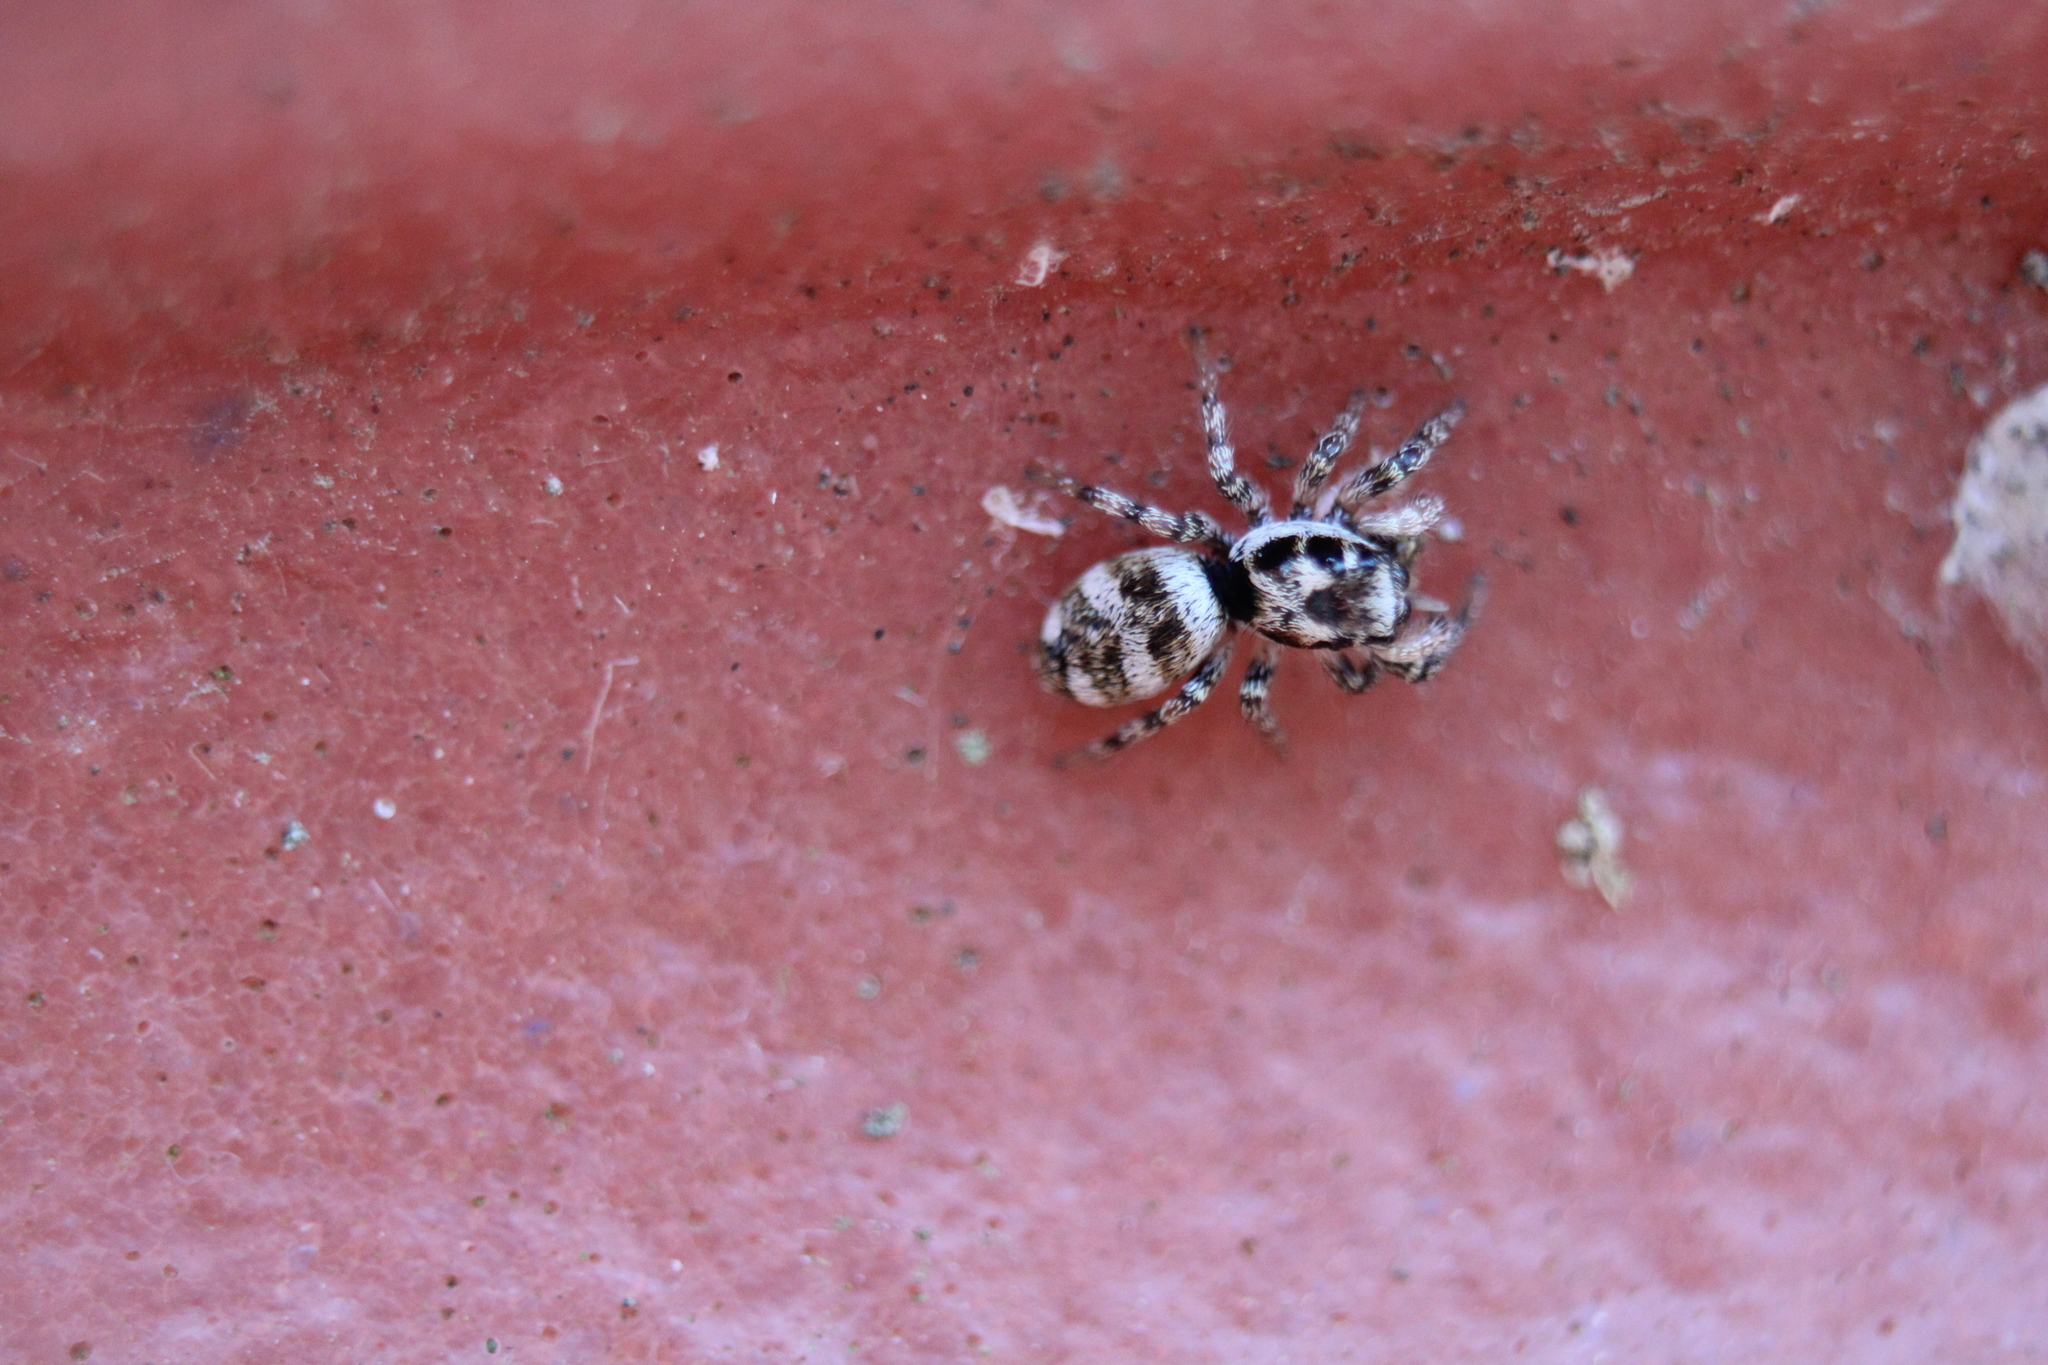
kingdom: Animalia
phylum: Arthropoda
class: Arachnida
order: Araneae
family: Salticidae
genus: Salticus
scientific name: Salticus scenicus
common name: Zebra jumper
